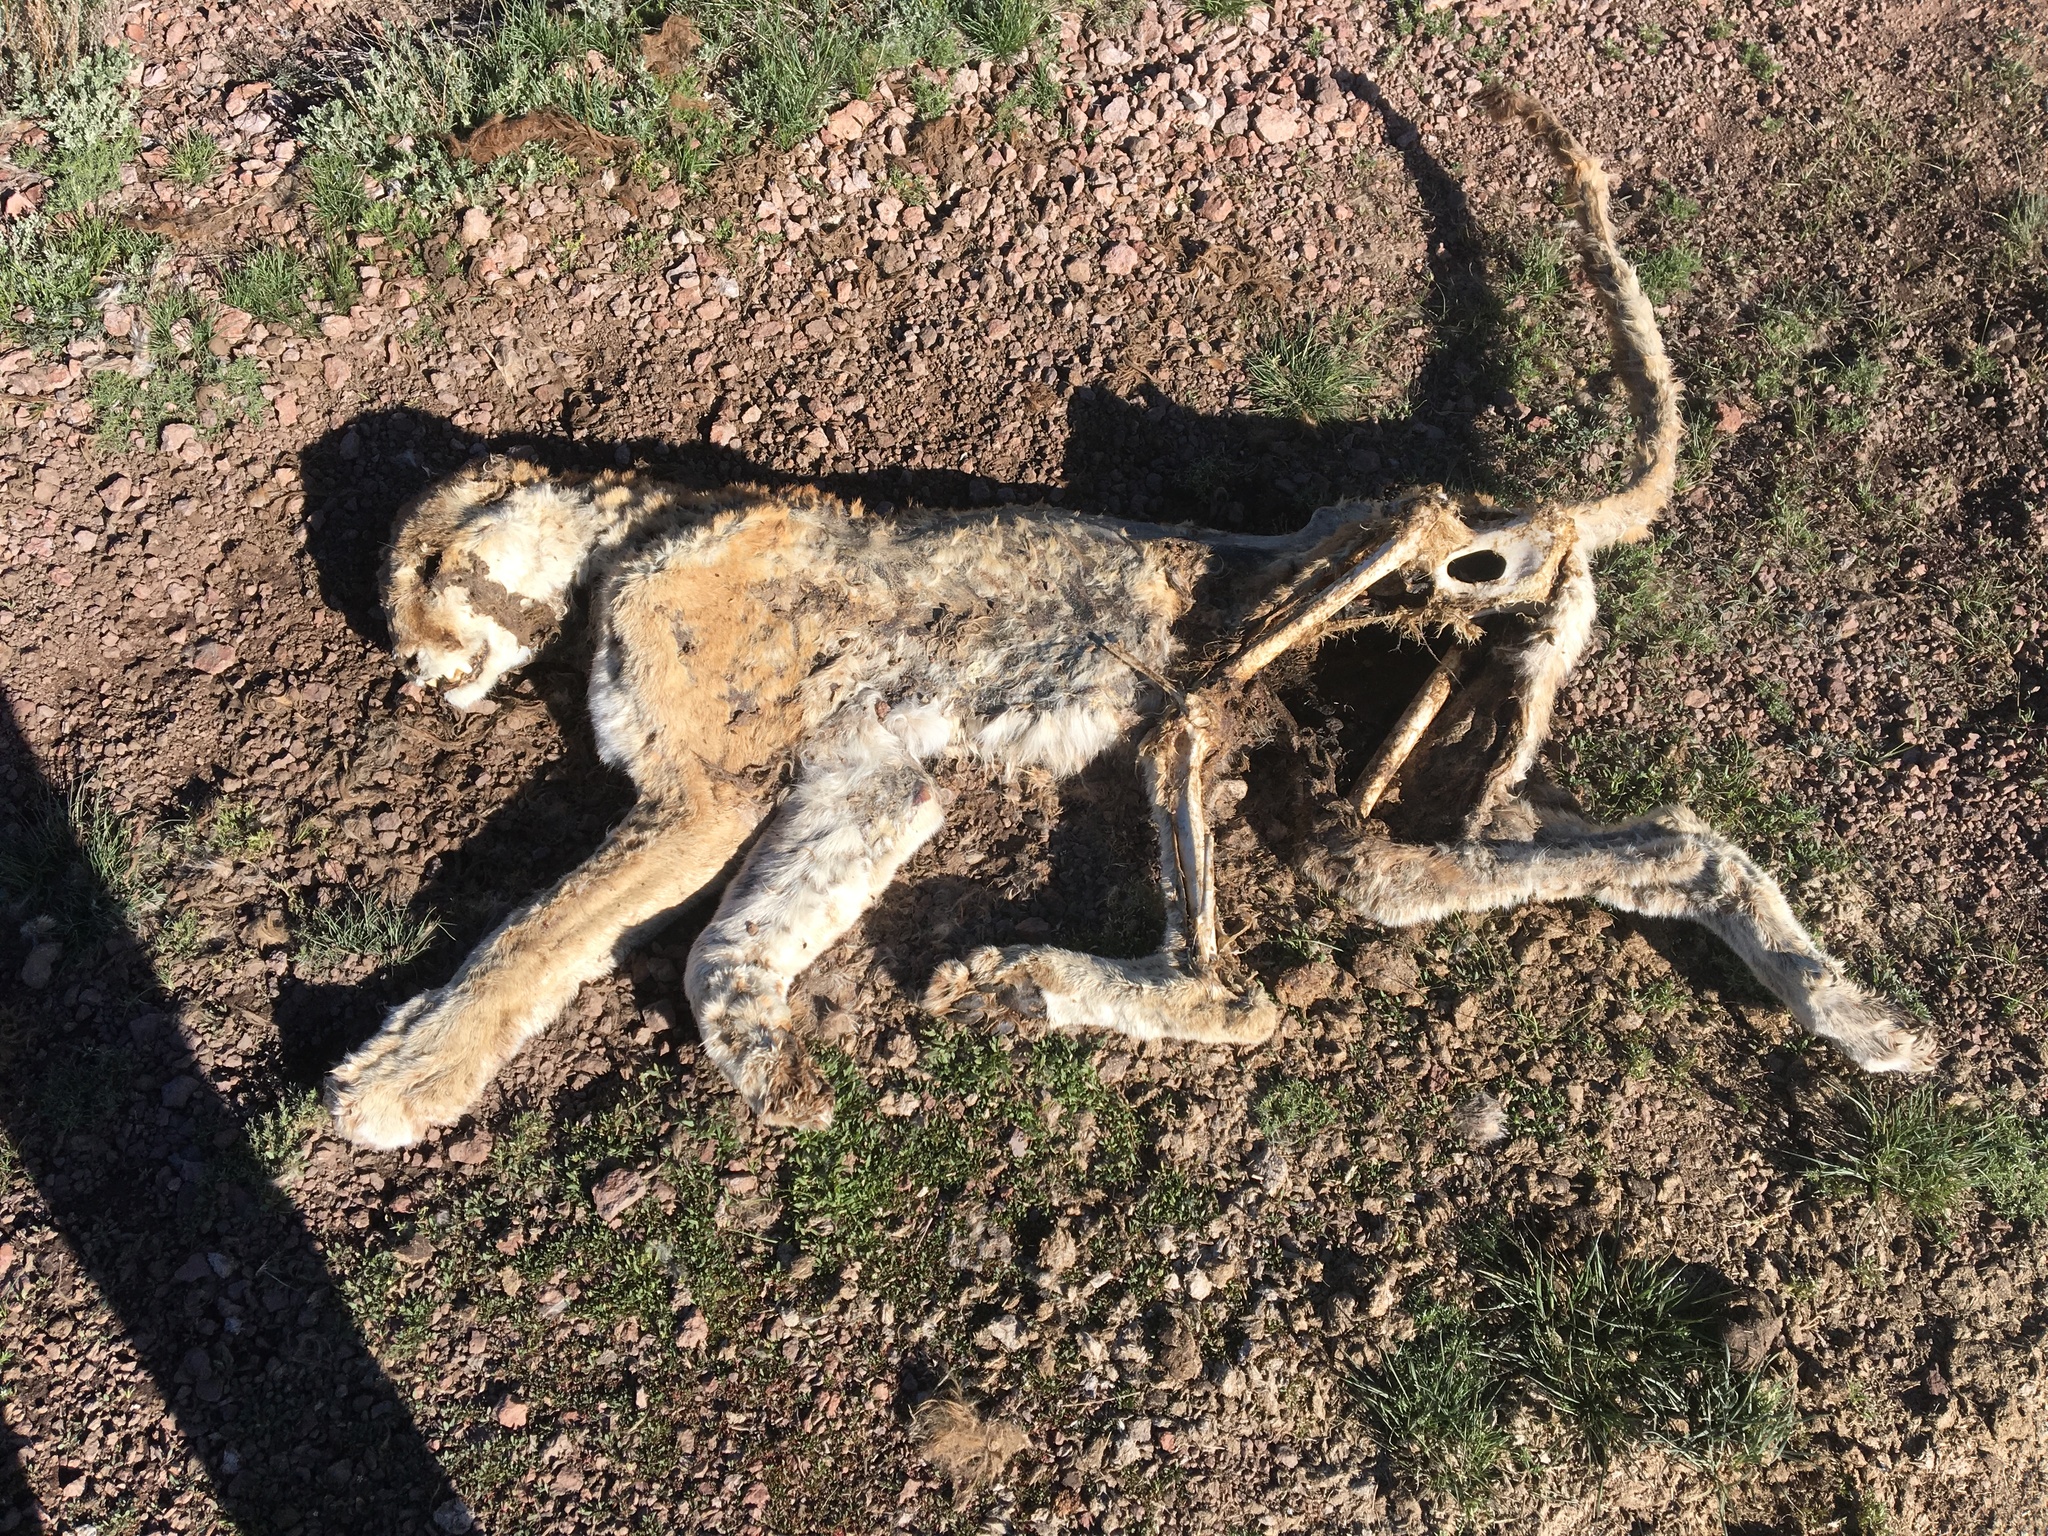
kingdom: Animalia
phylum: Chordata
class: Mammalia
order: Carnivora
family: Felidae
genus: Puma
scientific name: Puma concolor
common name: Puma
